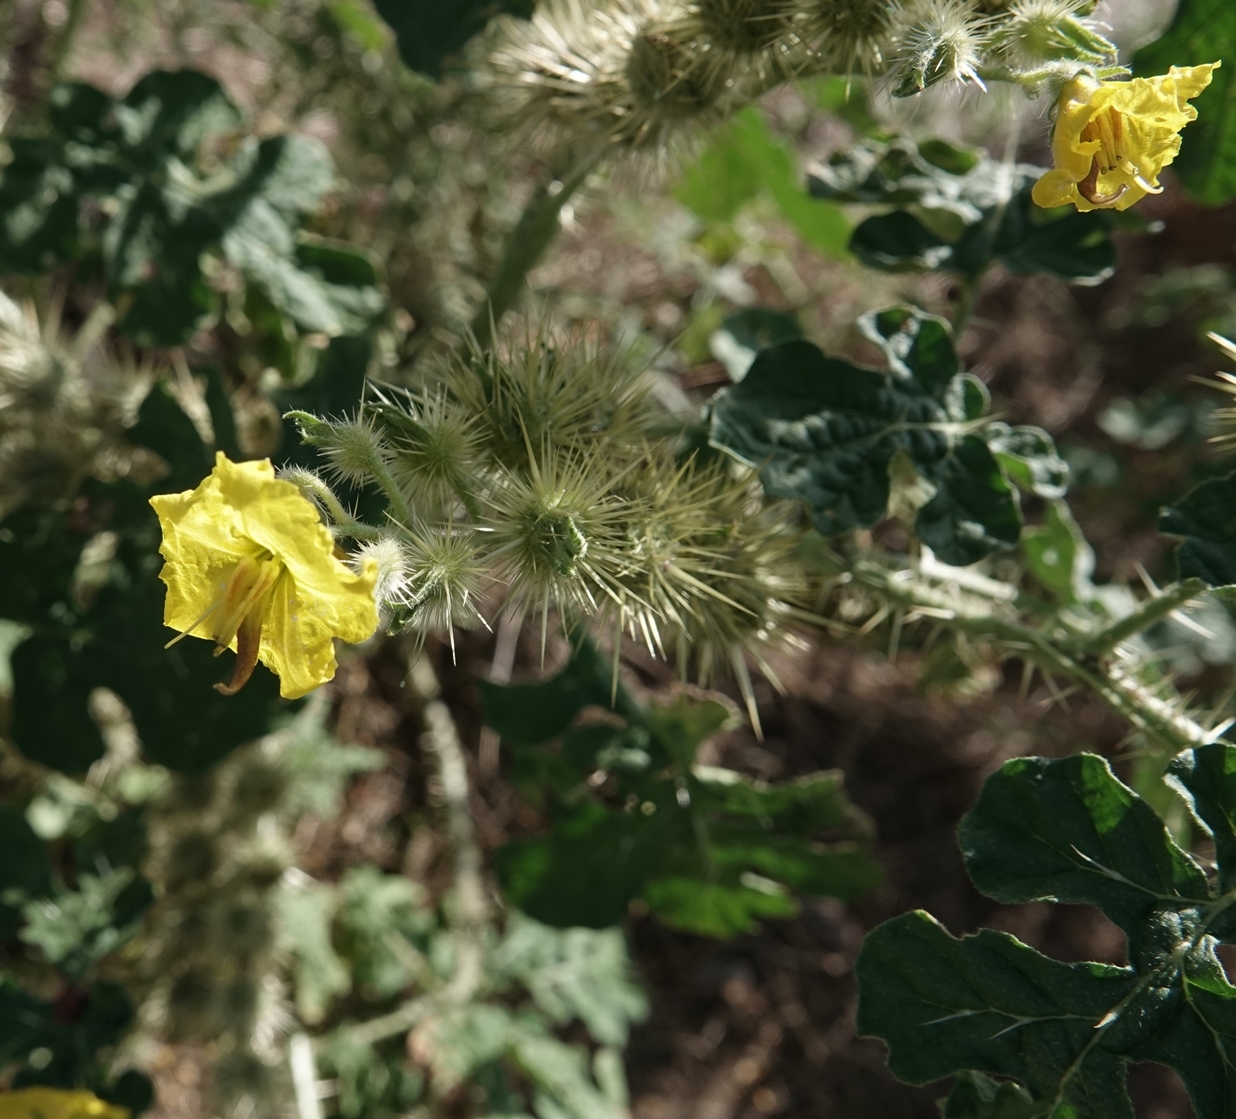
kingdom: Plantae
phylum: Tracheophyta
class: Magnoliopsida
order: Solanales
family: Solanaceae
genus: Solanum
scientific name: Solanum angustifolium
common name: Buffalobur nightshade
